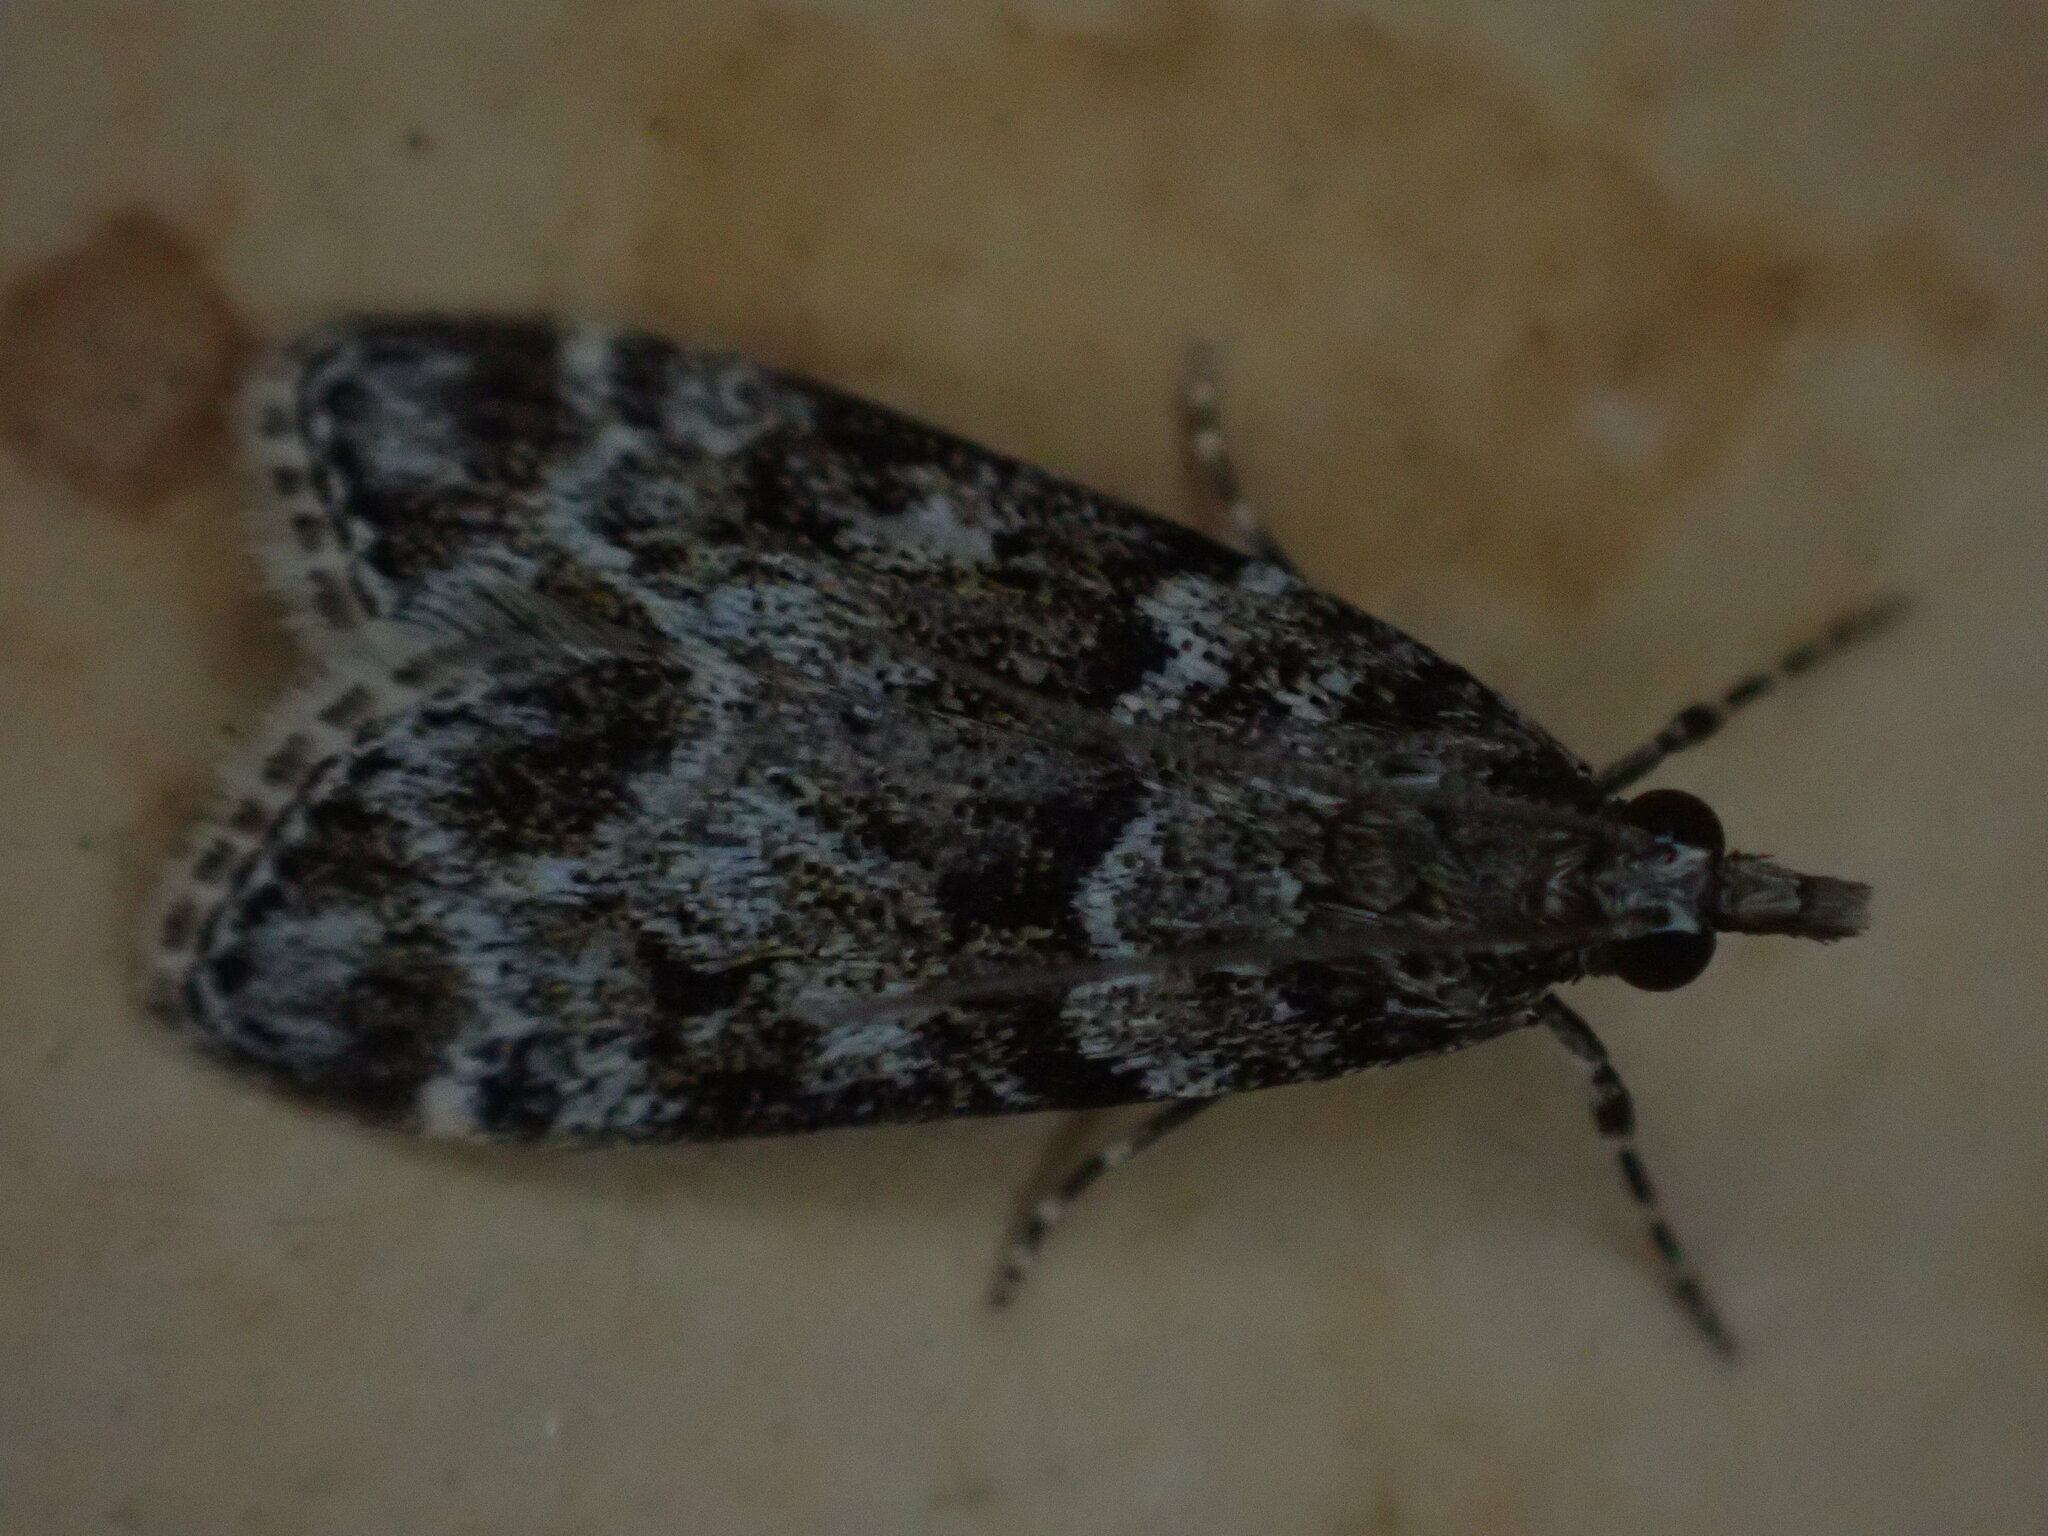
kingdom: Animalia
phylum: Arthropoda
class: Insecta
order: Lepidoptera
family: Crambidae
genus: Eudonia
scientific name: Eudonia mercurella
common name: Small grey
